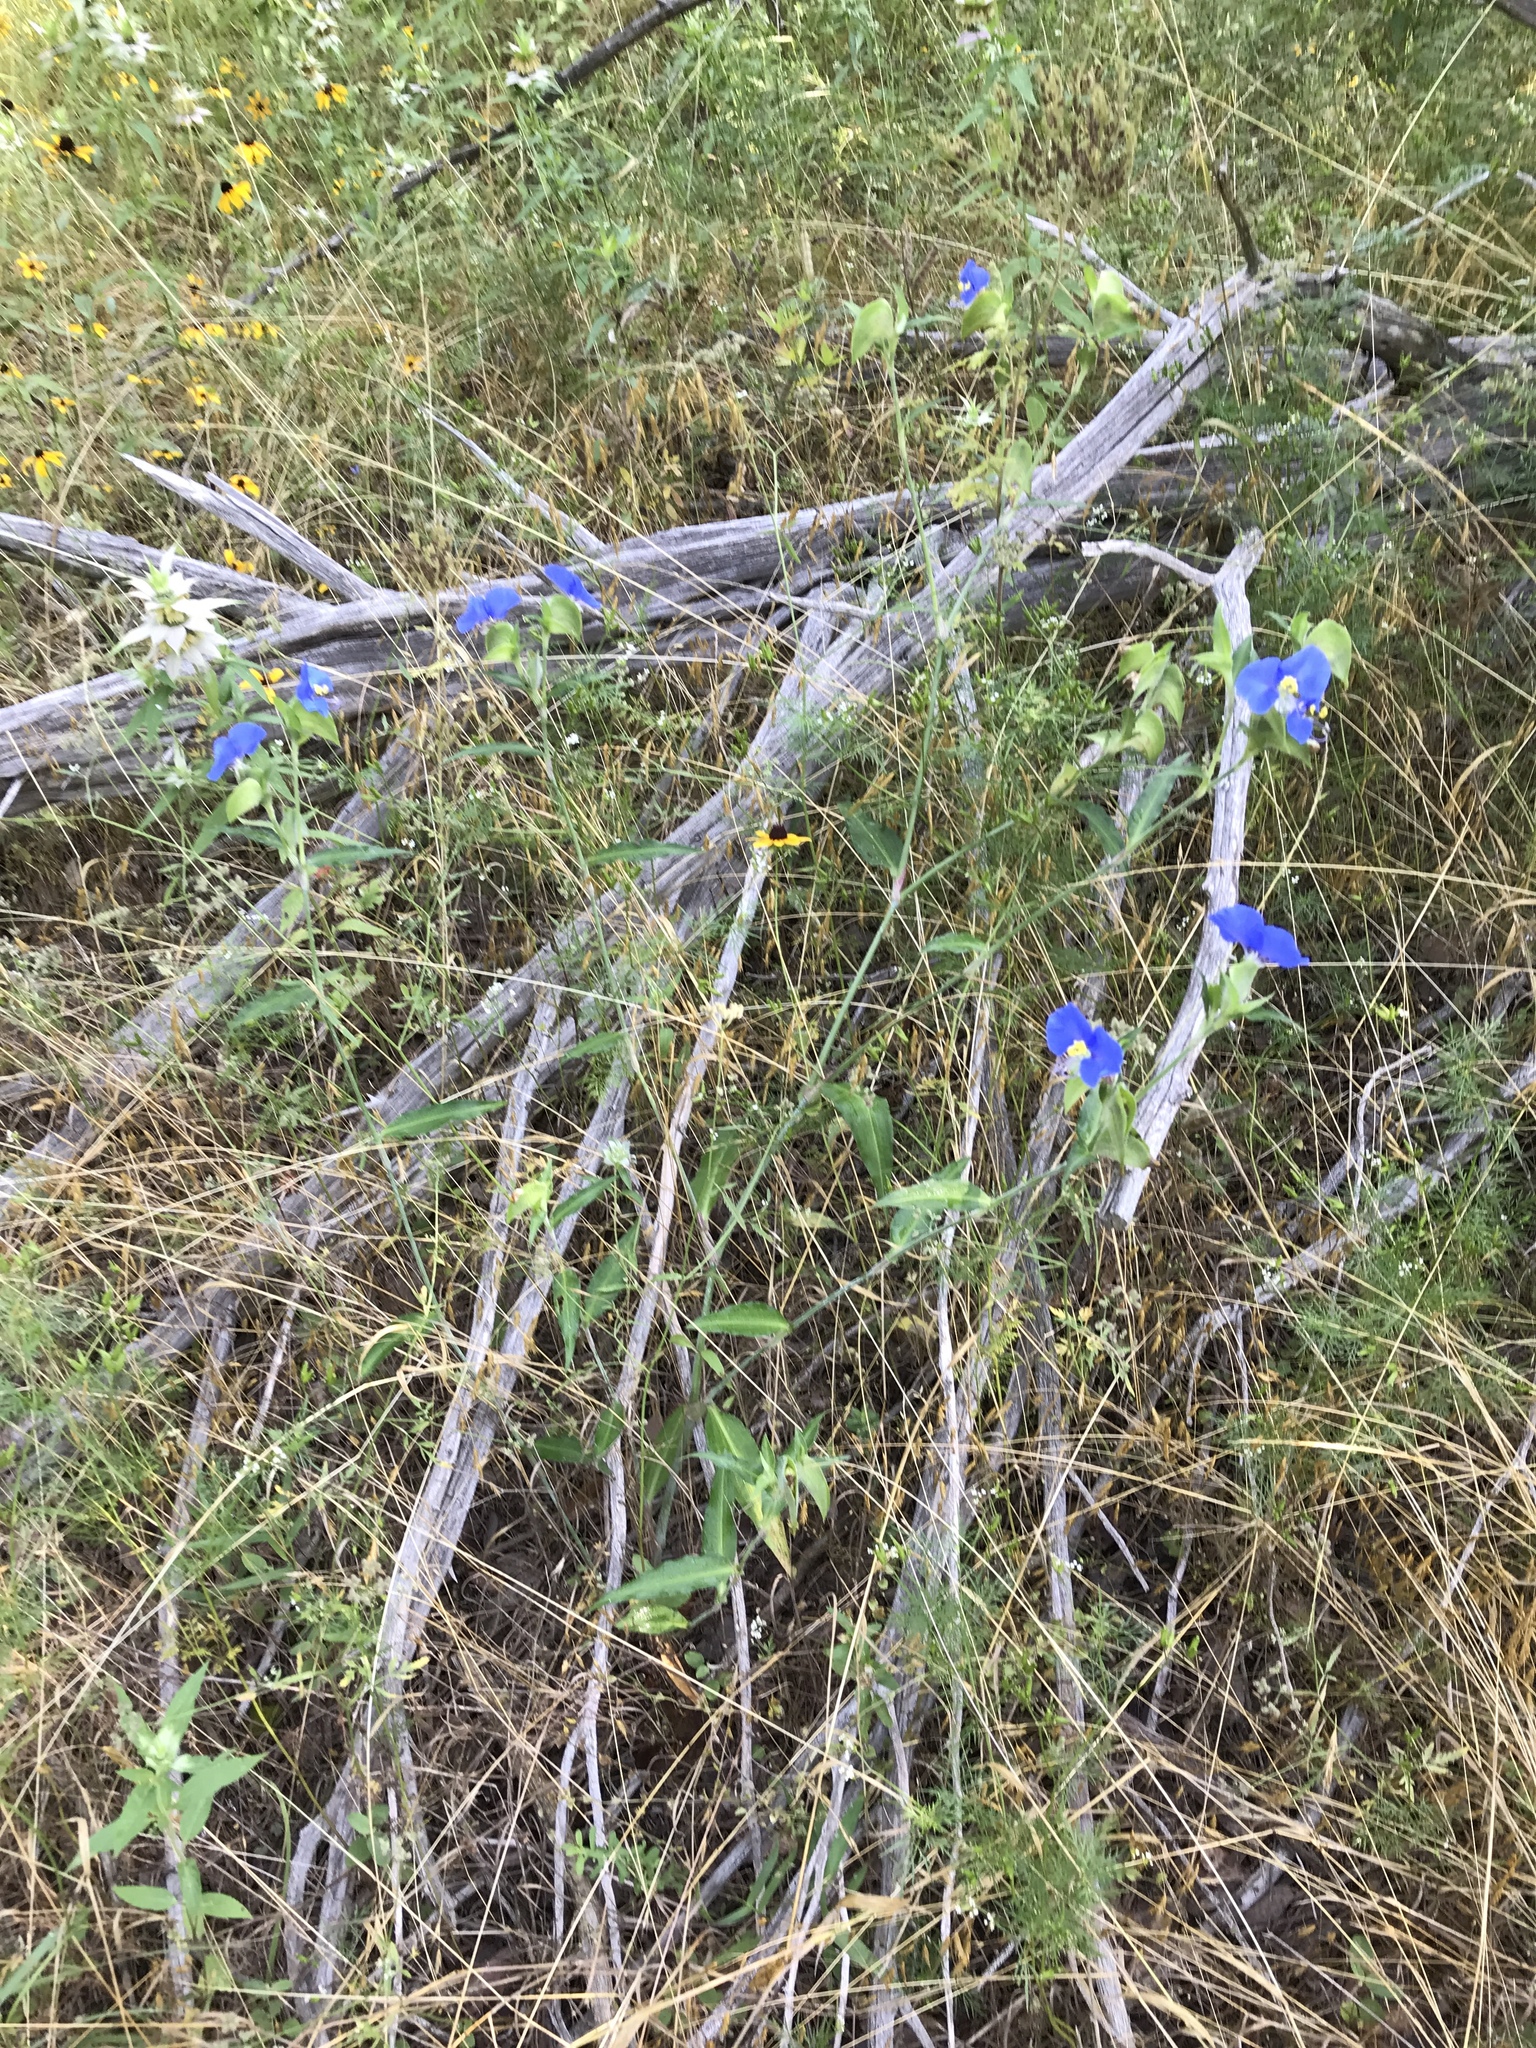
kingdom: Plantae
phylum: Tracheophyta
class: Liliopsida
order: Commelinales
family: Commelinaceae
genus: Commelina
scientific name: Commelina erecta
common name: Blousel blommetjie
